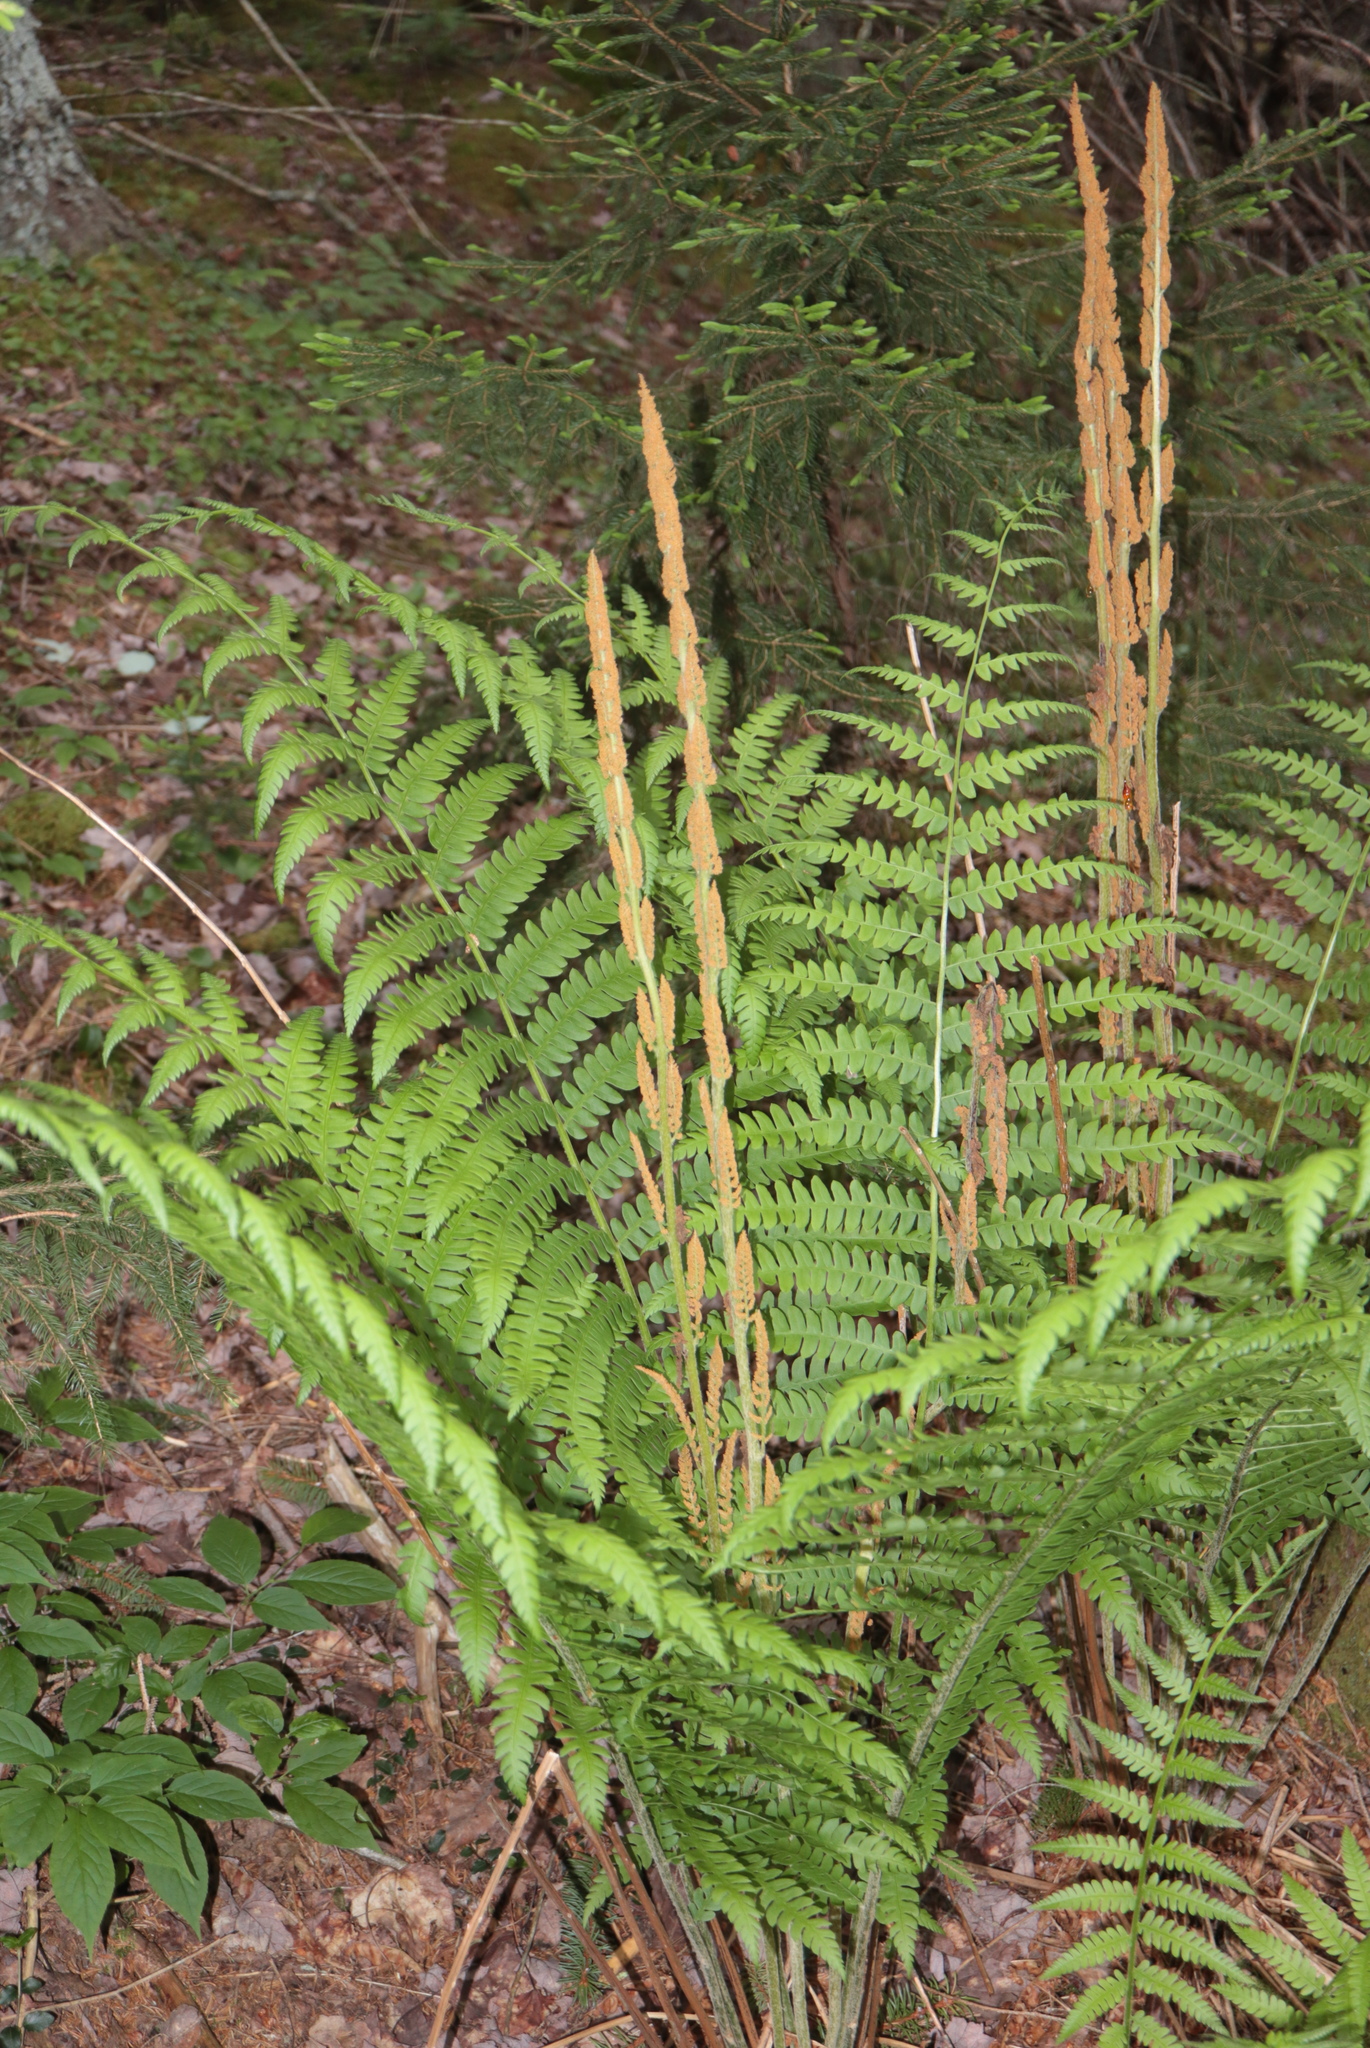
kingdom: Plantae
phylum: Tracheophyta
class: Polypodiopsida
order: Osmundales
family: Osmundaceae
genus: Osmundastrum
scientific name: Osmundastrum cinnamomeum
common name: Cinnamon fern
